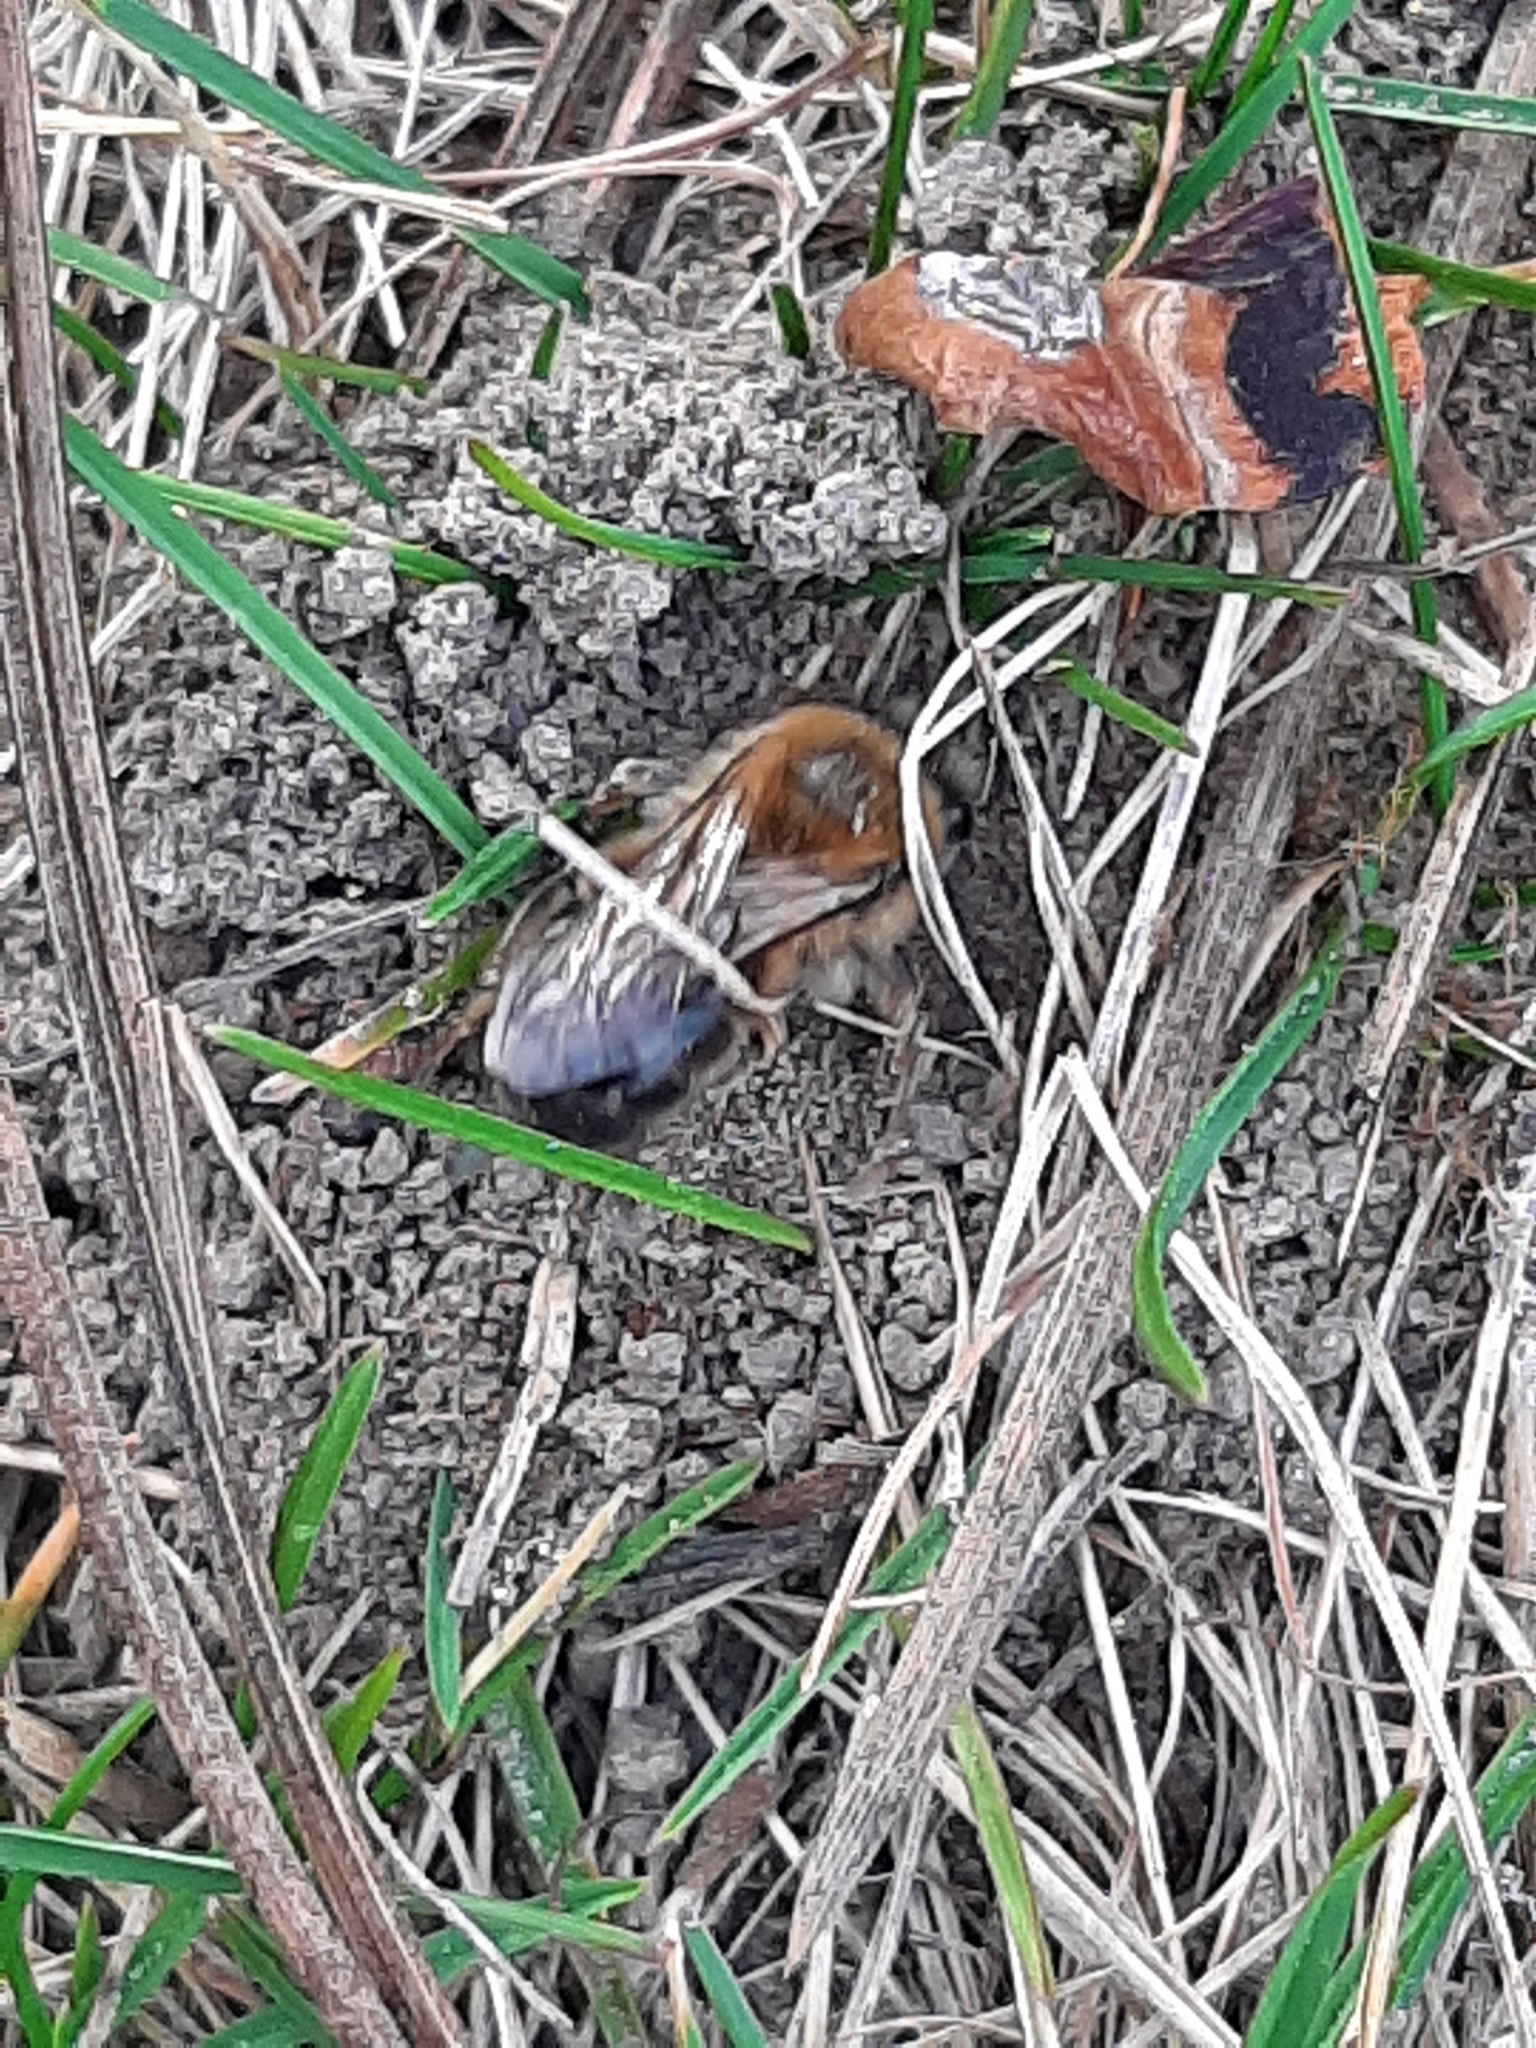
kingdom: Animalia
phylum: Arthropoda
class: Insecta
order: Hymenoptera
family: Colletidae
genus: Colletes
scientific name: Colletes cunicularius
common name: Early colletes
